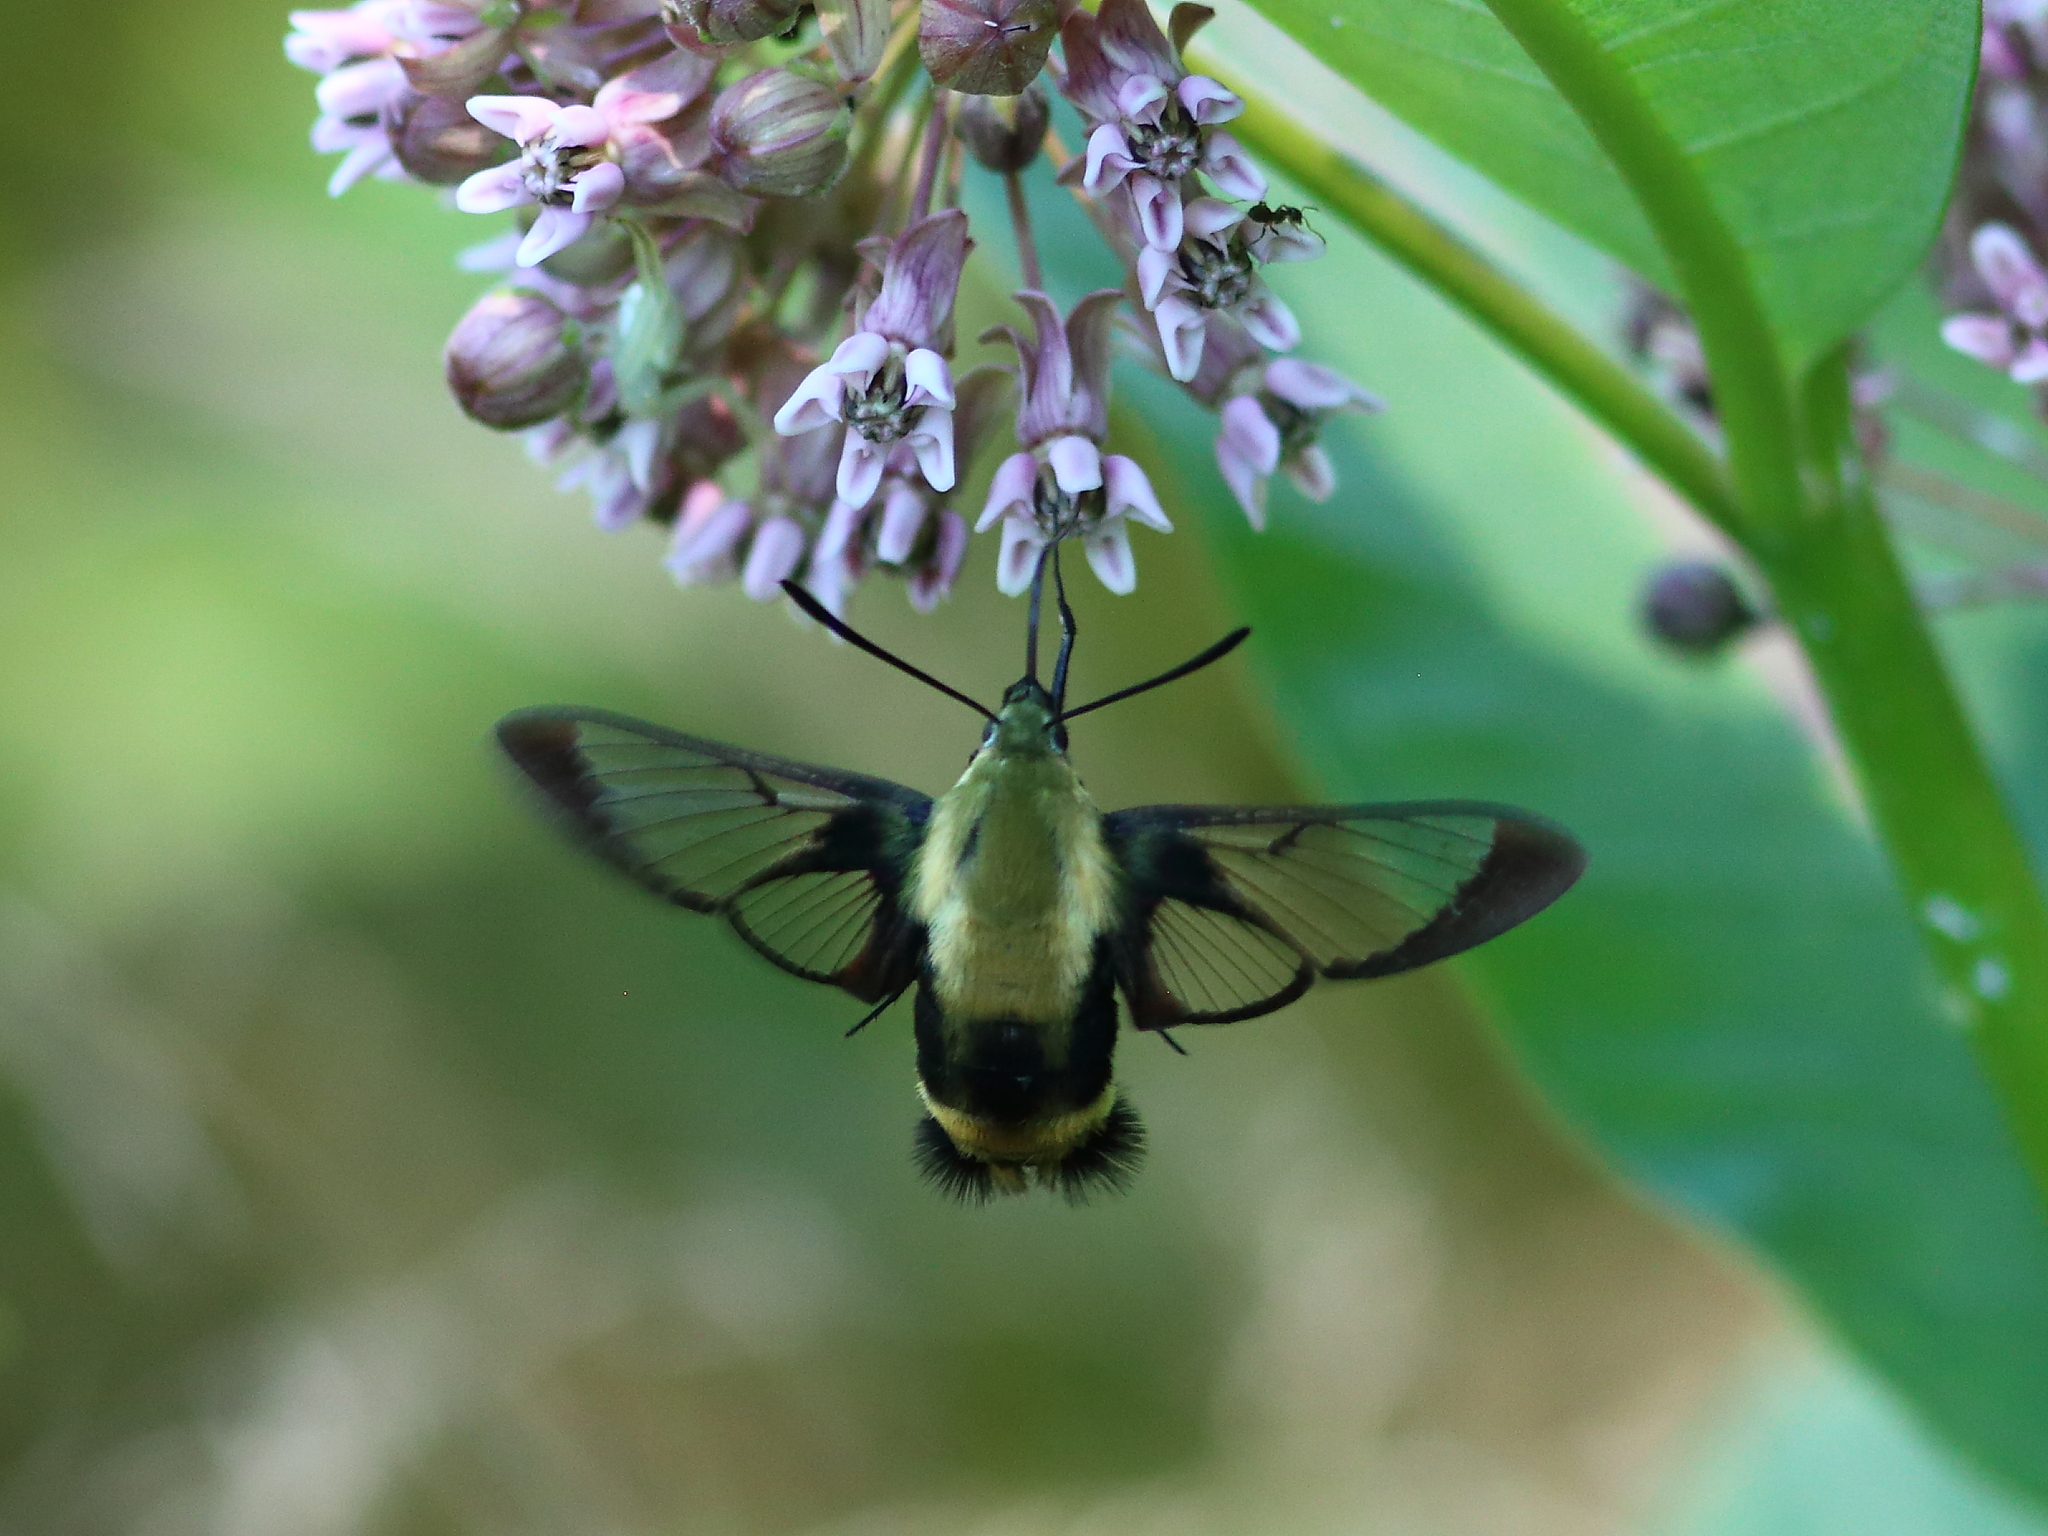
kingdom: Animalia
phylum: Arthropoda
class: Insecta
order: Lepidoptera
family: Sphingidae
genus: Hemaris
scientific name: Hemaris diffinis
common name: Bumblebee moth
